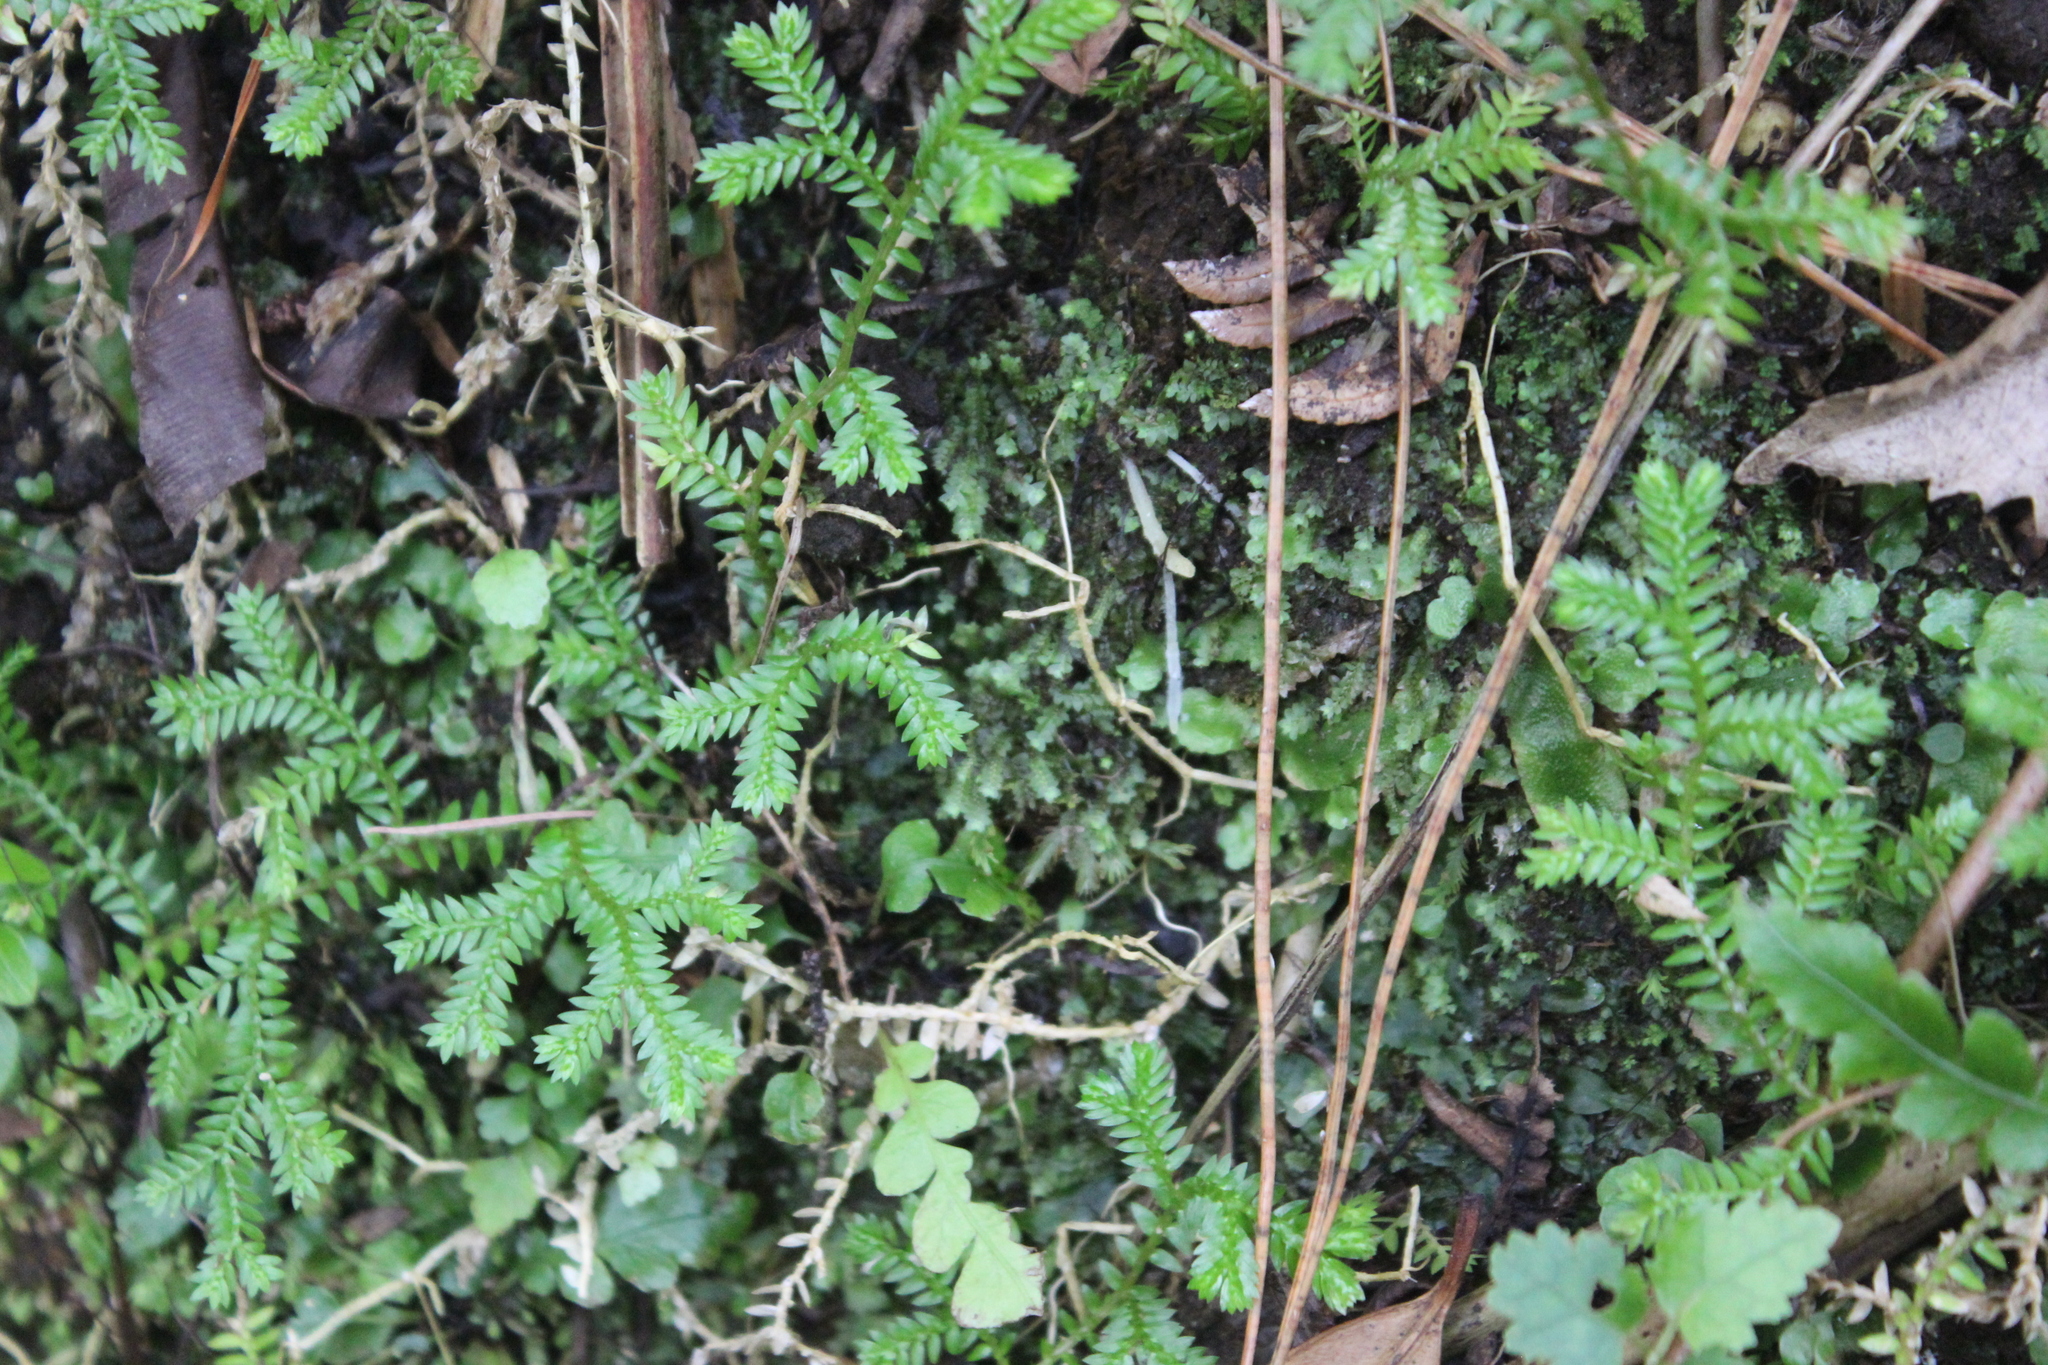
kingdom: Plantae
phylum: Tracheophyta
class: Lycopodiopsida
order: Selaginellales
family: Selaginellaceae
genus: Selaginella
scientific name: Selaginella kraussiana
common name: Krauss' spikemoss
